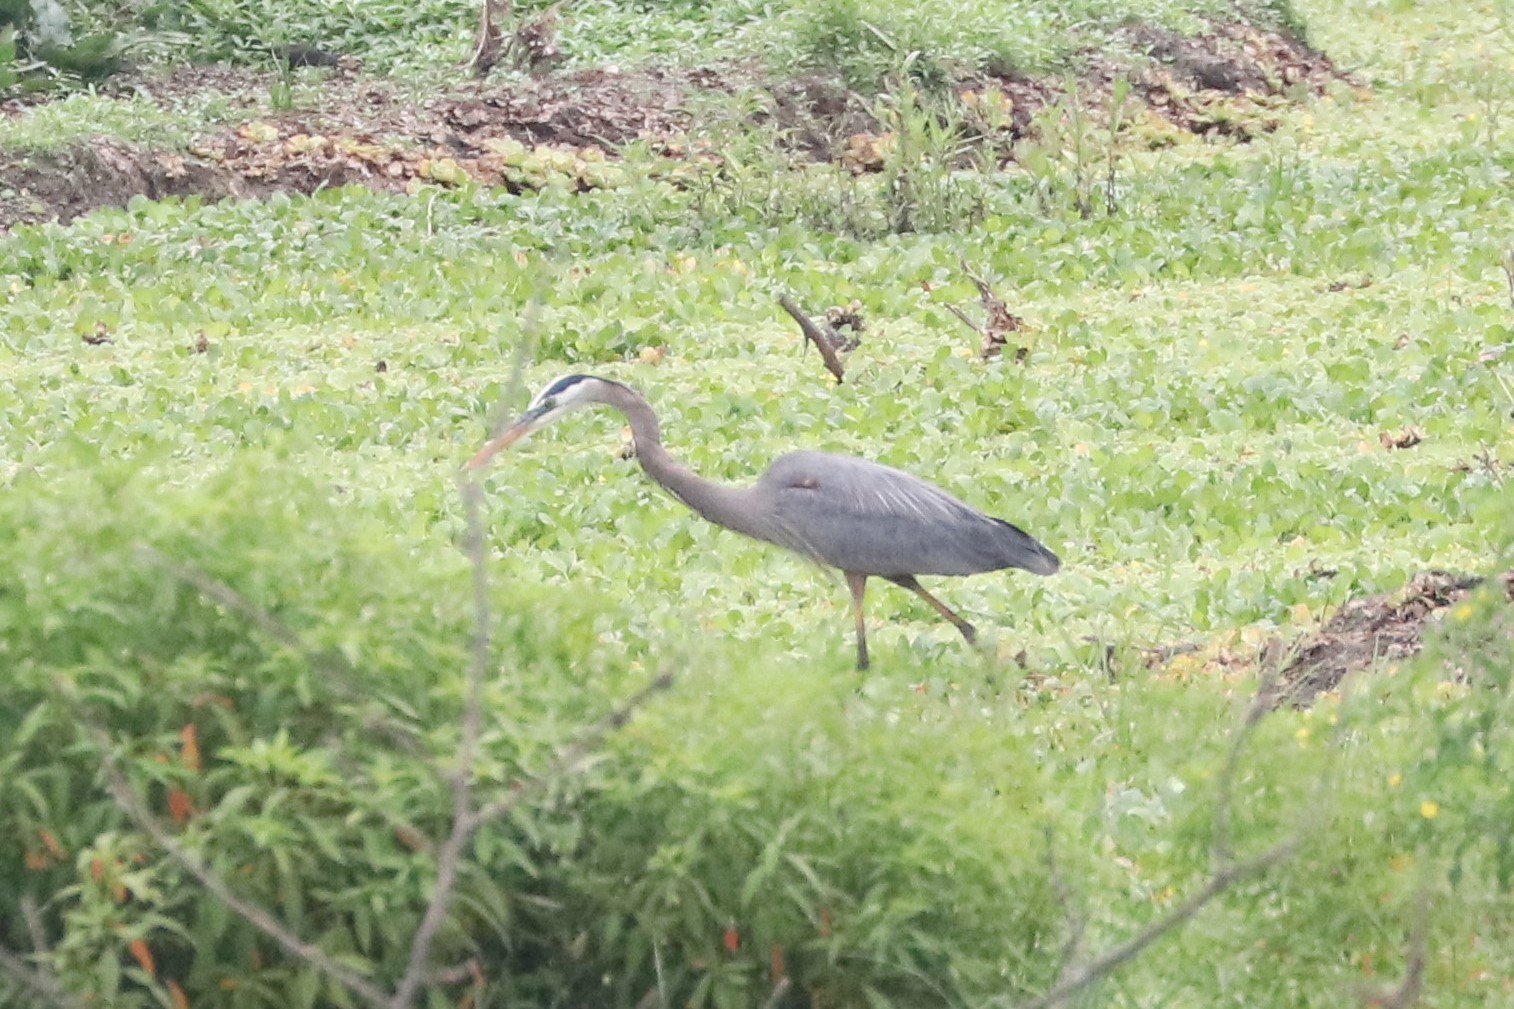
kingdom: Animalia
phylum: Chordata
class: Aves
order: Pelecaniformes
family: Ardeidae
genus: Ardea
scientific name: Ardea herodias
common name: Great blue heron
